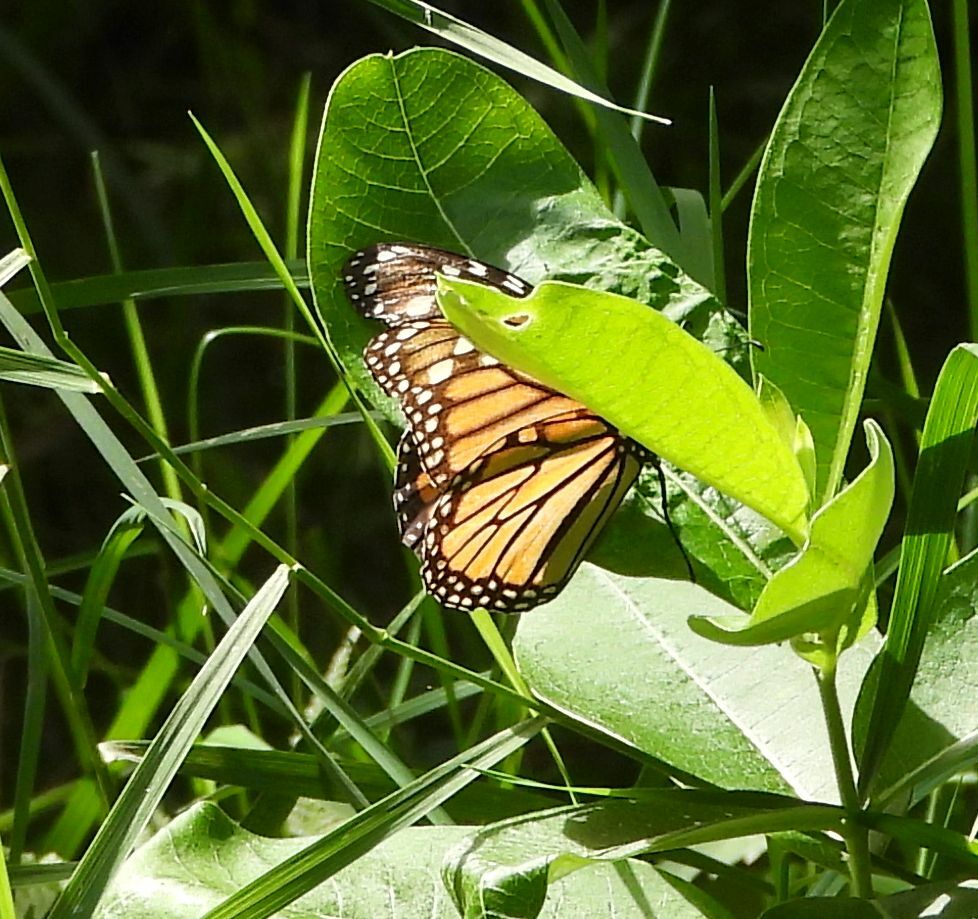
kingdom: Animalia
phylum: Arthropoda
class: Insecta
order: Lepidoptera
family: Nymphalidae
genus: Danaus
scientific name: Danaus plexippus
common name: Monarch
